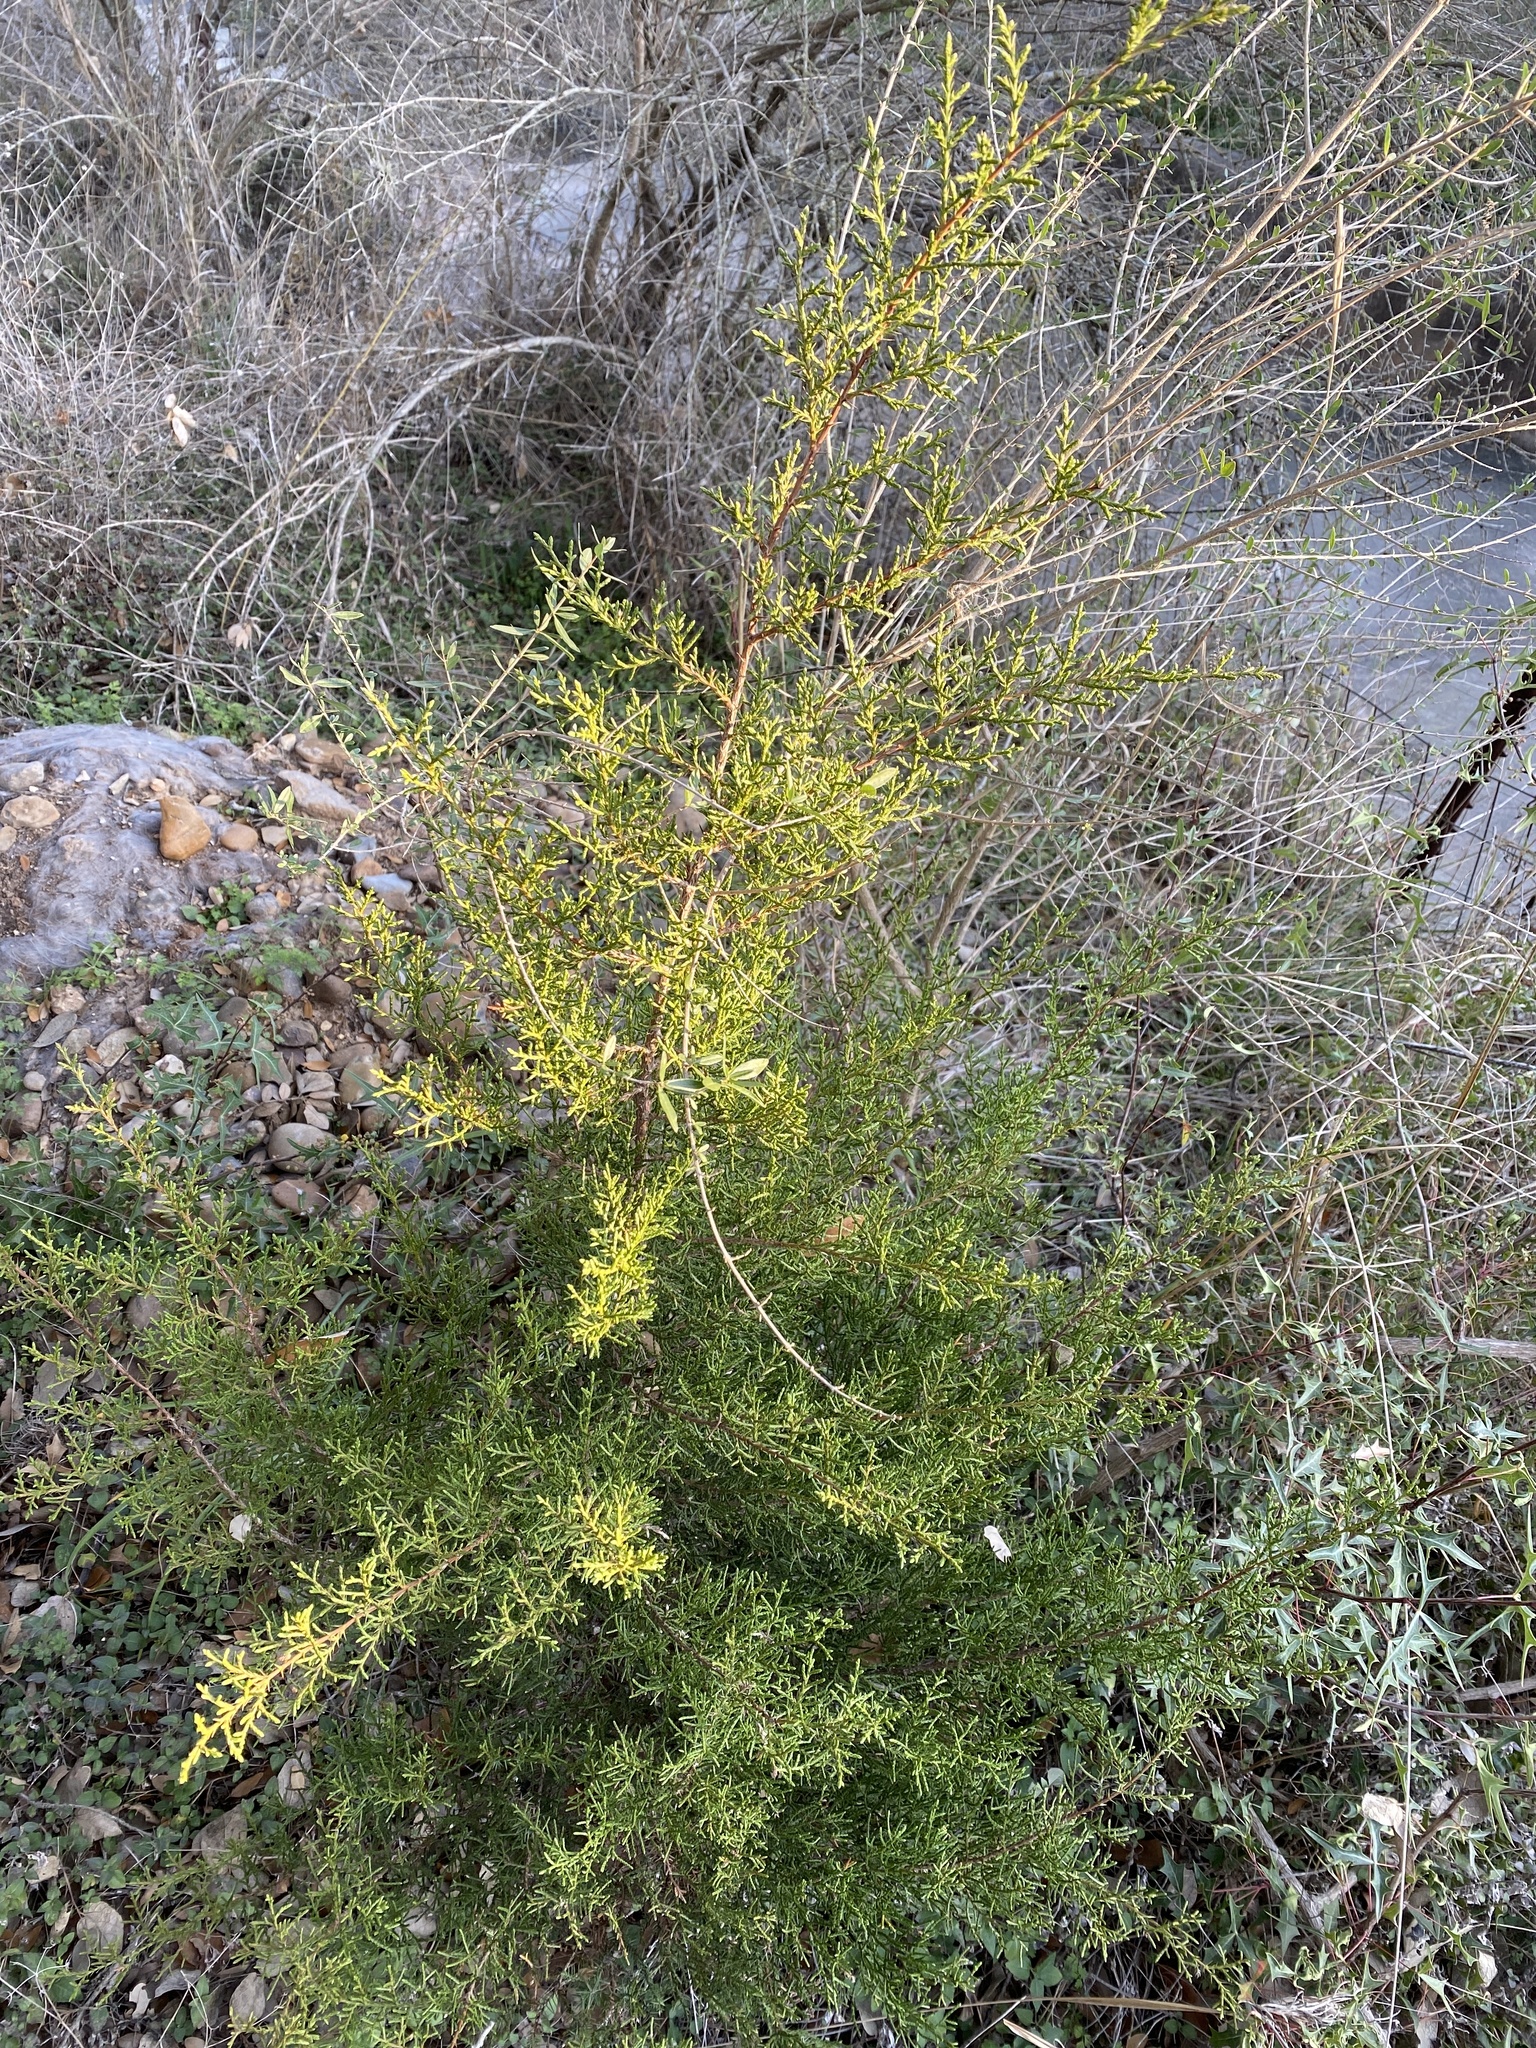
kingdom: Plantae
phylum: Tracheophyta
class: Pinopsida
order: Pinales
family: Cupressaceae
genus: Juniperus
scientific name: Juniperus ashei
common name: Mexican juniper
